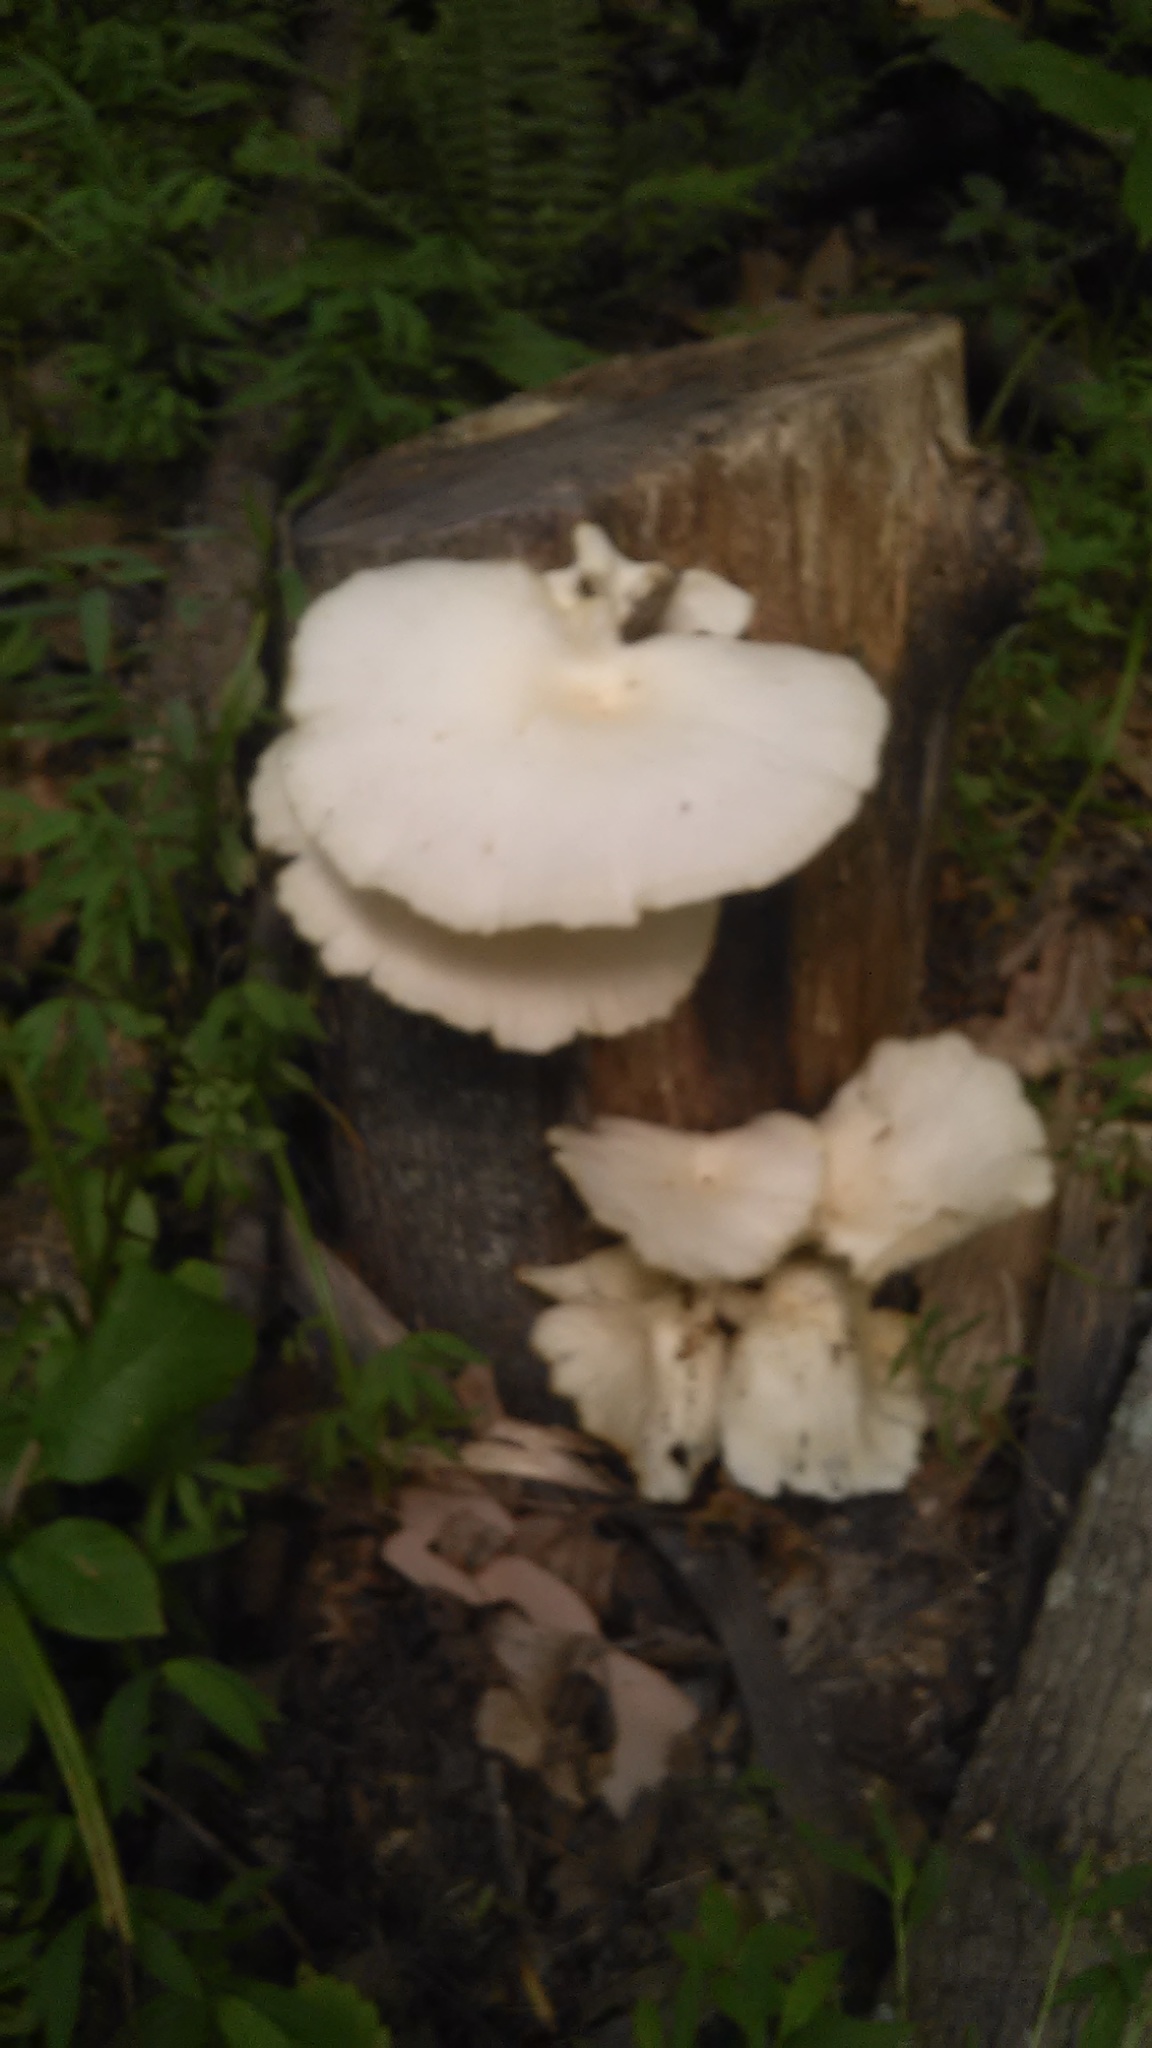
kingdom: Fungi
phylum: Basidiomycota
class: Agaricomycetes
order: Agaricales
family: Pleurotaceae
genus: Pleurotus
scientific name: Pleurotus pulmonarius
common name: Pale oyster
